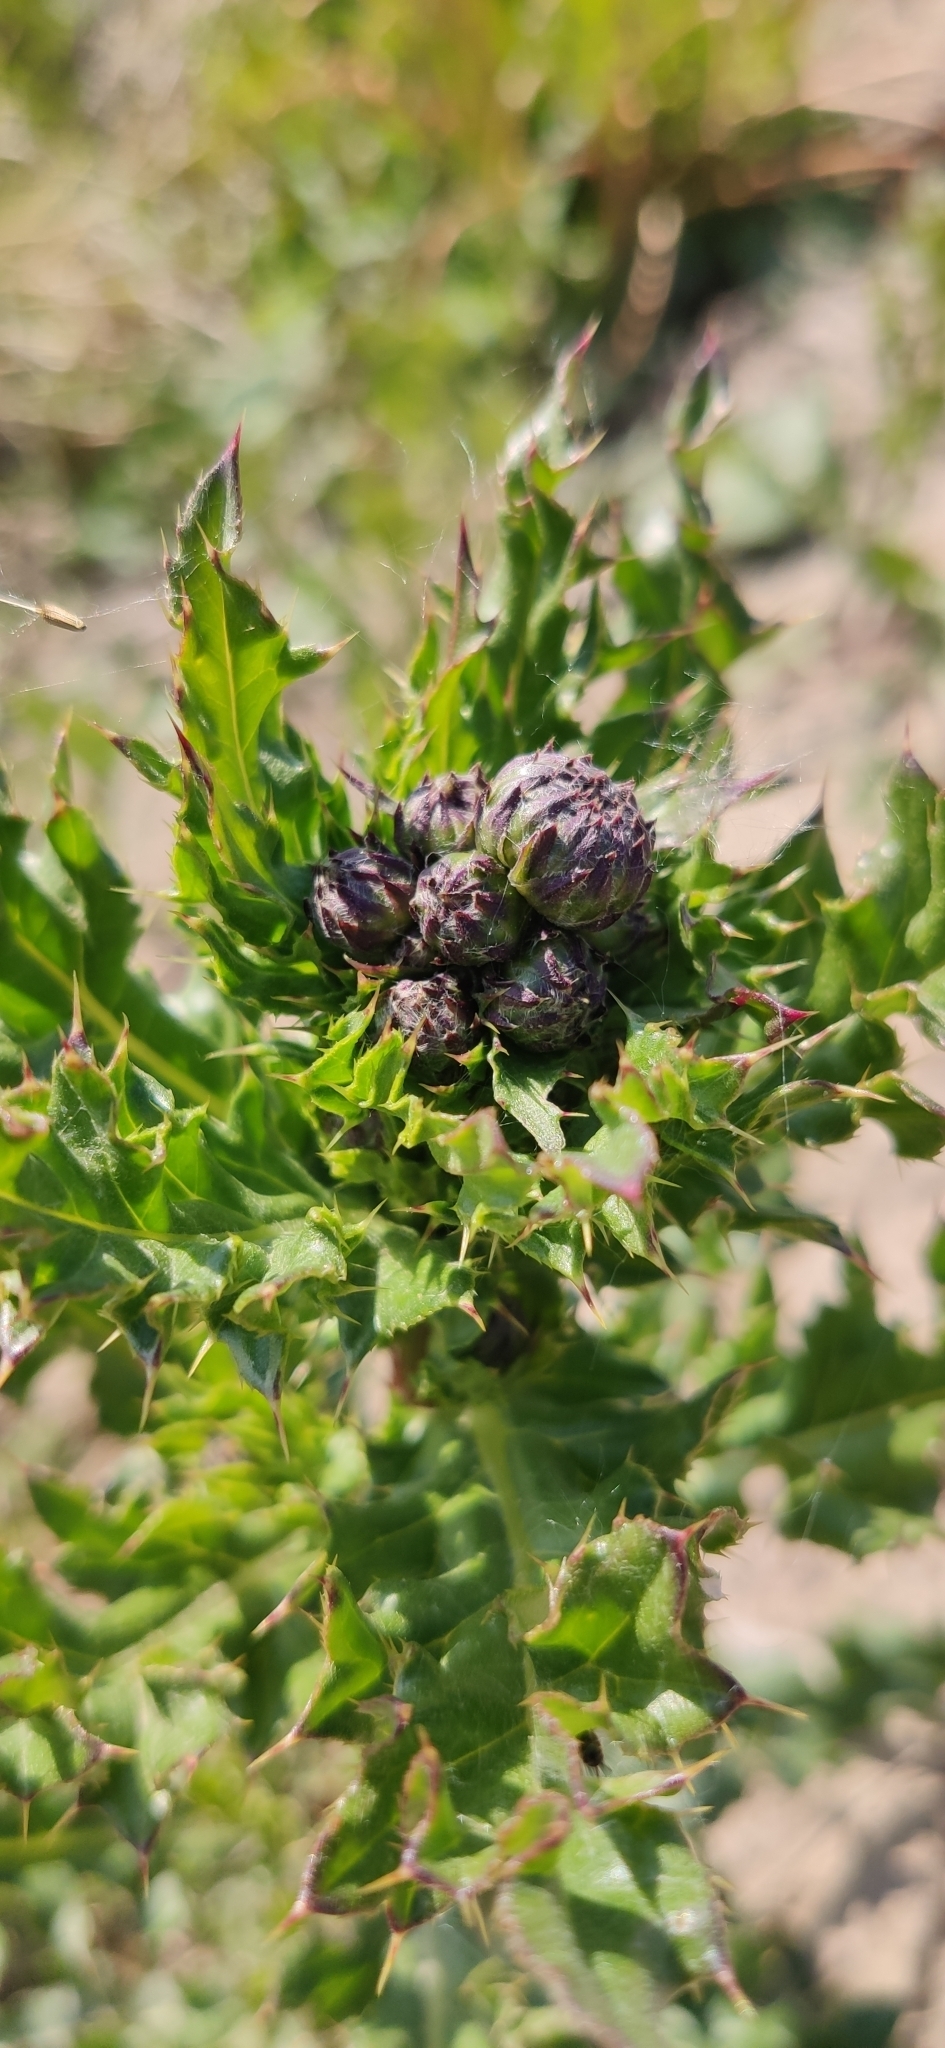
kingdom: Plantae
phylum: Tracheophyta
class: Magnoliopsida
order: Asterales
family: Asteraceae
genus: Cirsium
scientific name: Cirsium arvense
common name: Creeping thistle
